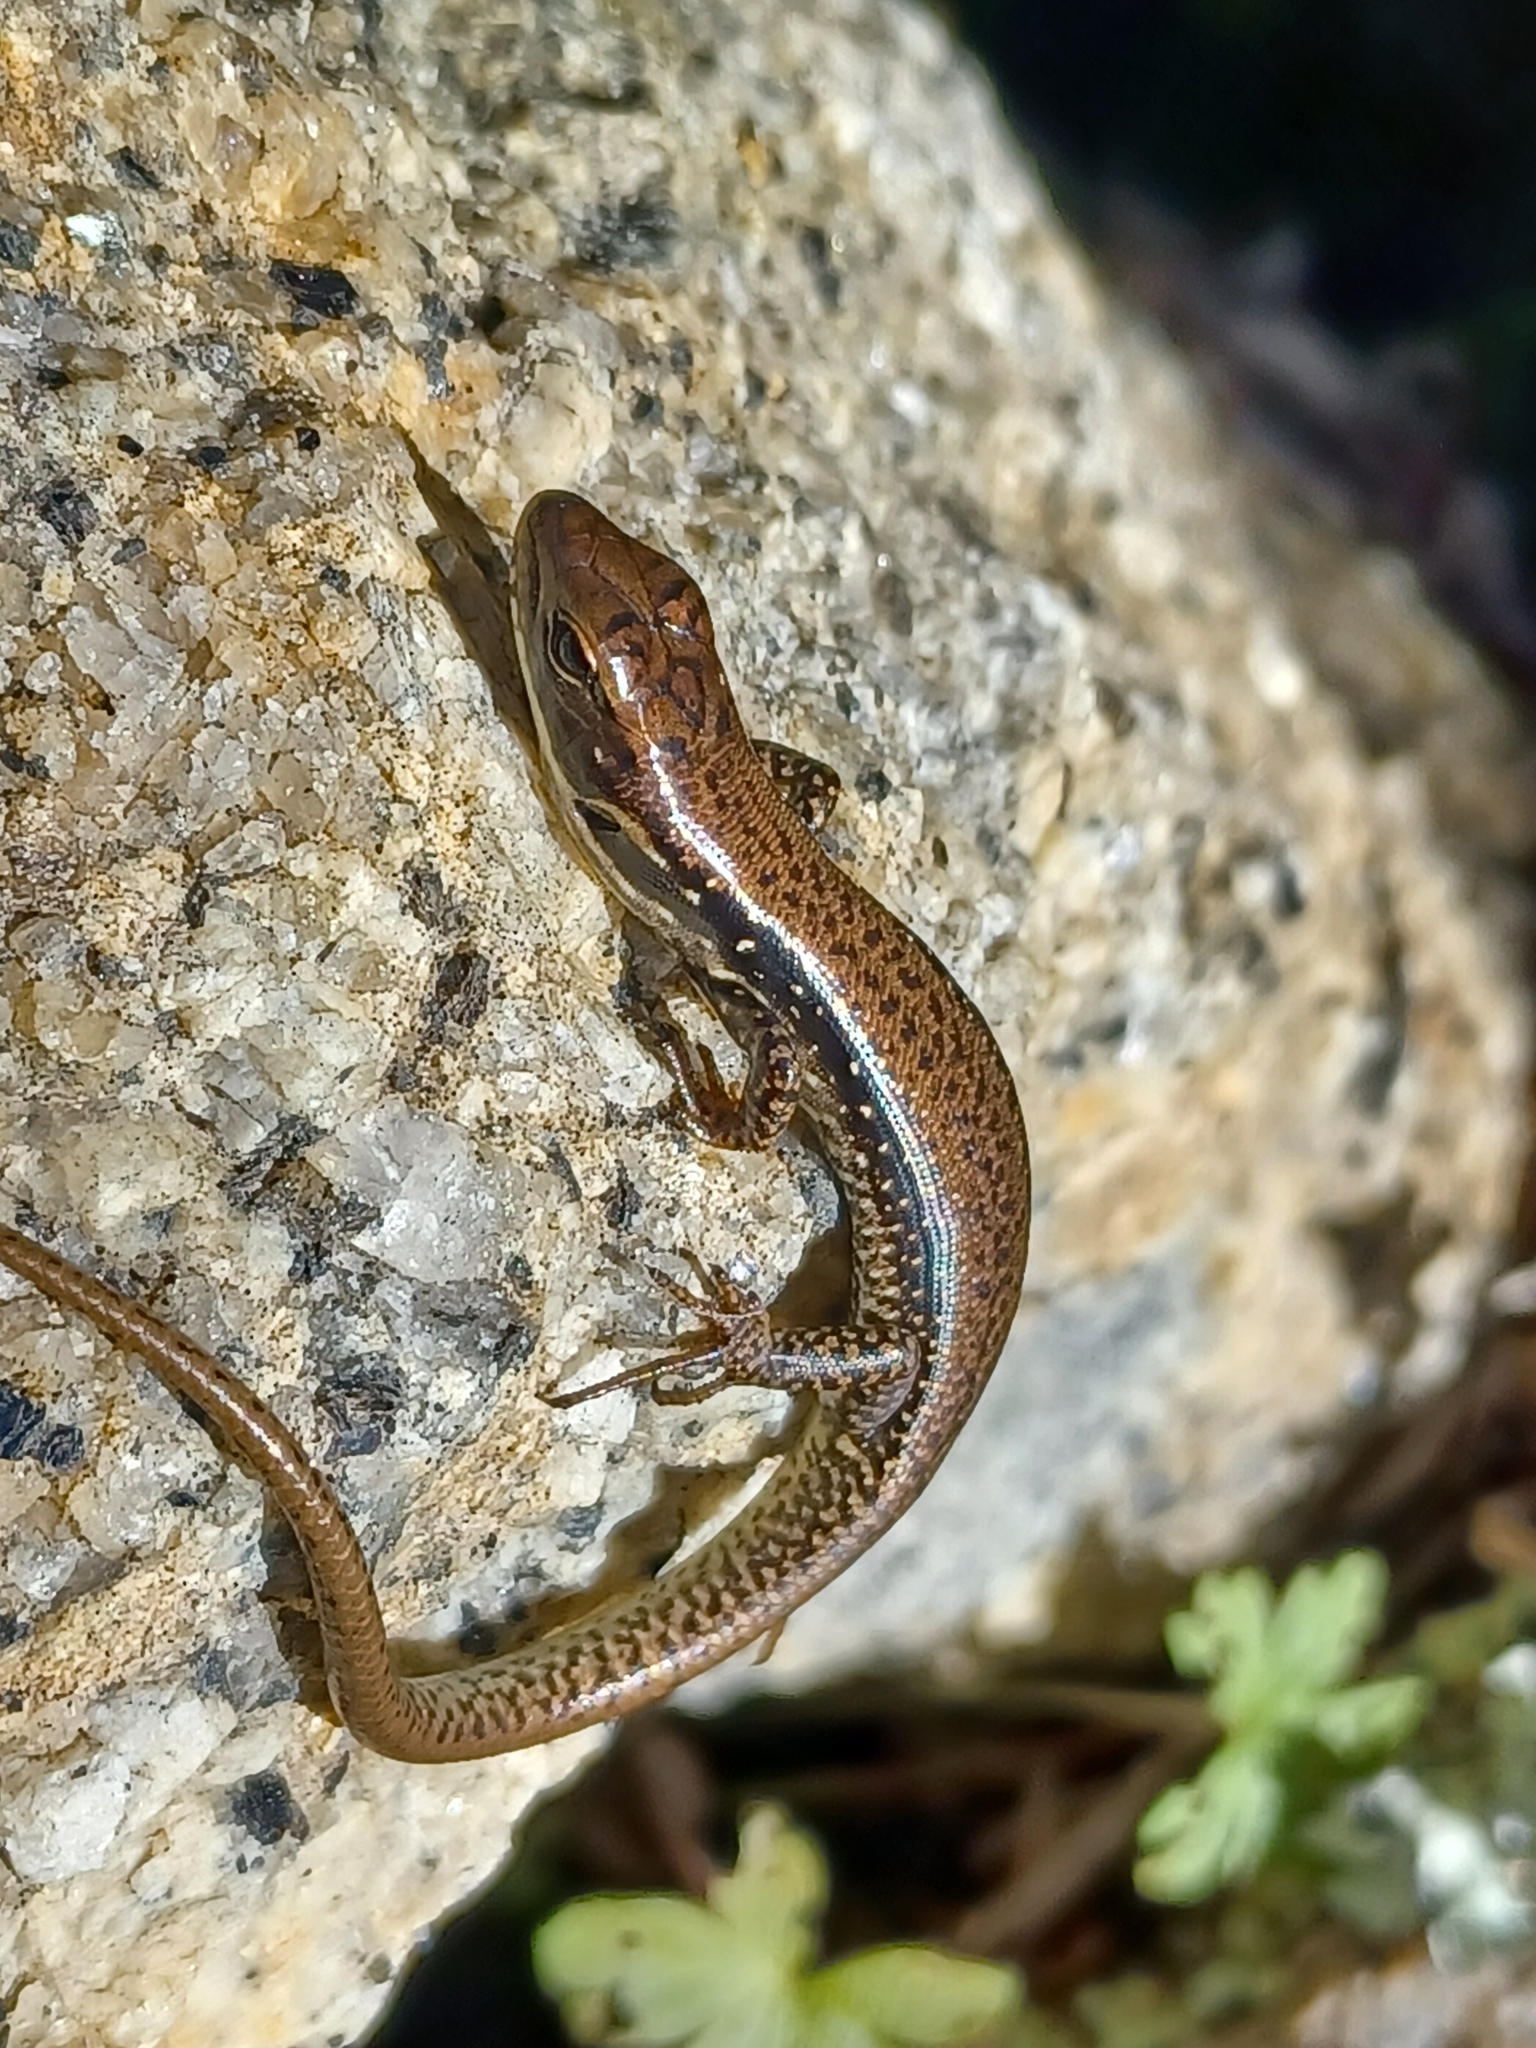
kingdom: Animalia
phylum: Chordata
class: Squamata
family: Scincidae
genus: Eulamprus
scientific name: Eulamprus tympanum
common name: Cool-temperate water-skink
